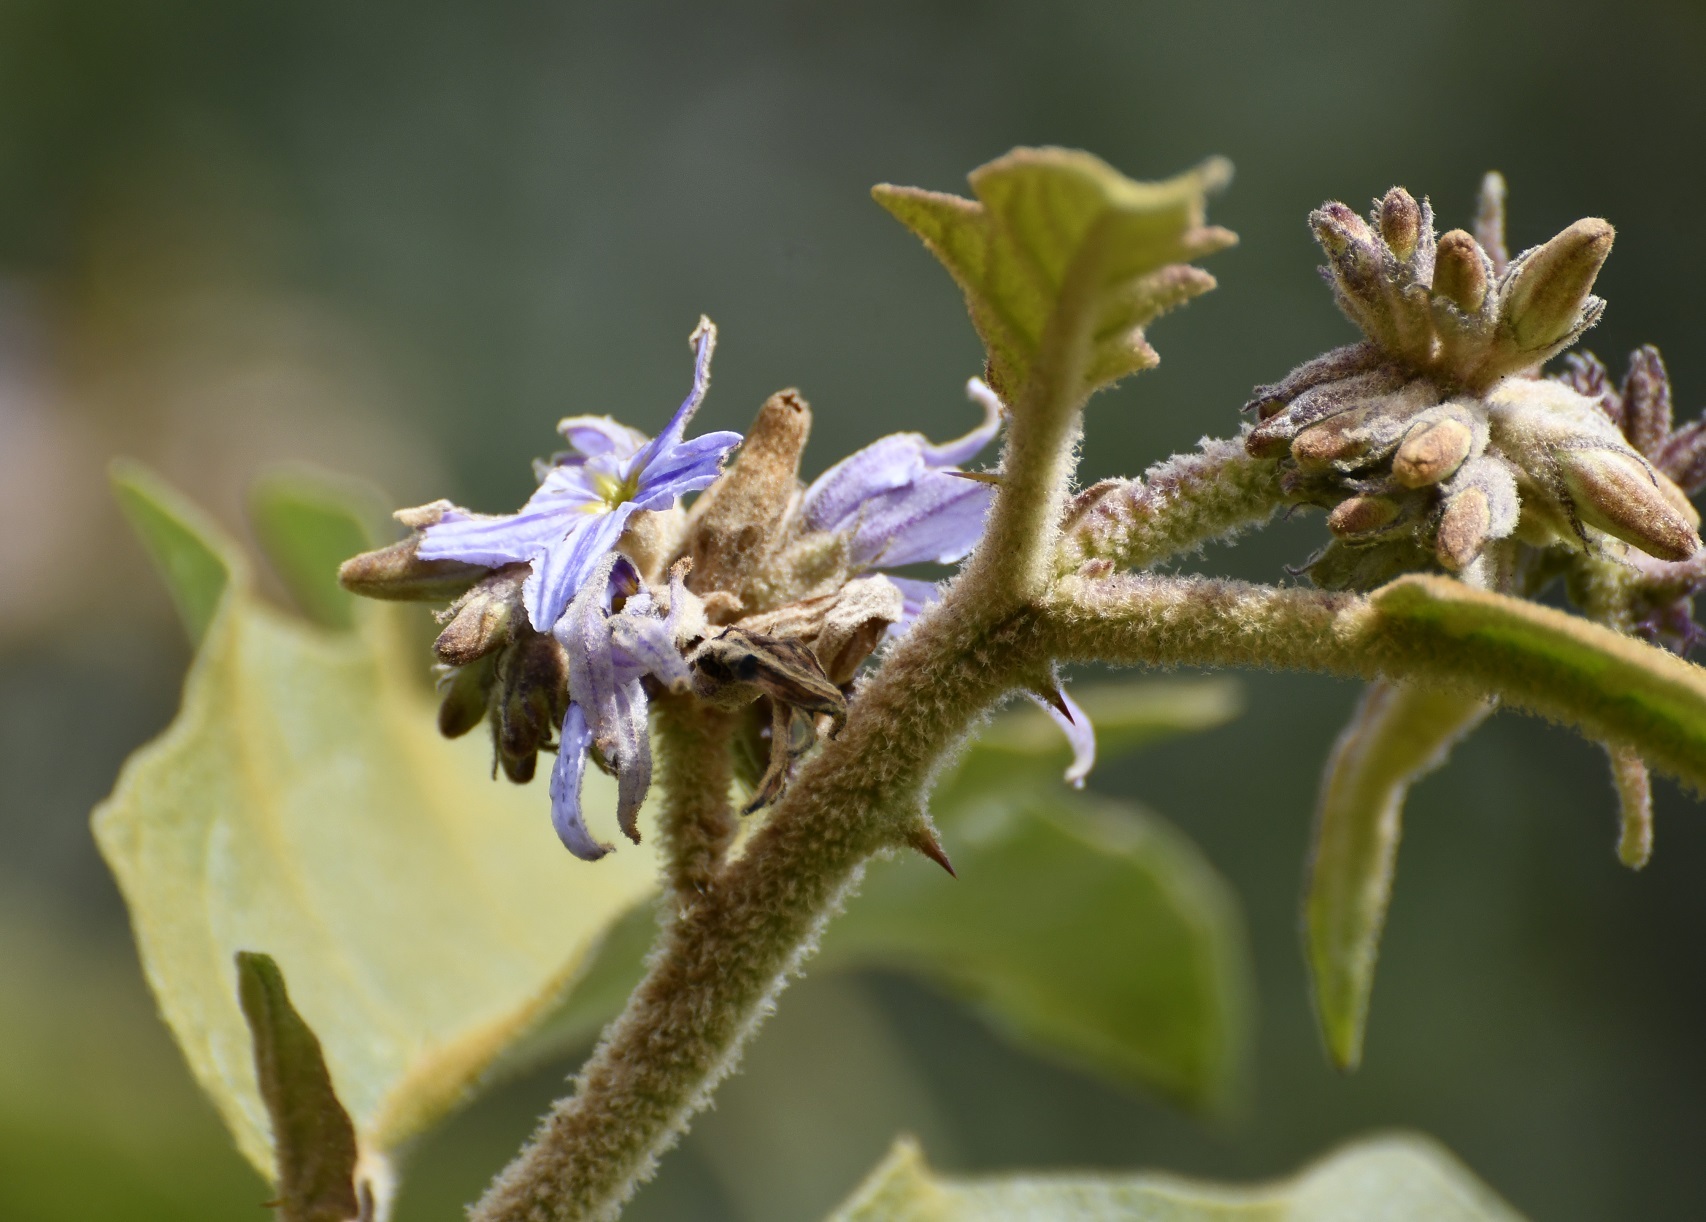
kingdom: Plantae
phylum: Tracheophyta
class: Magnoliopsida
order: Solanales
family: Solanaceae
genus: Solanum
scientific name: Solanum lanceolatum
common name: Orangeberry nightshade
